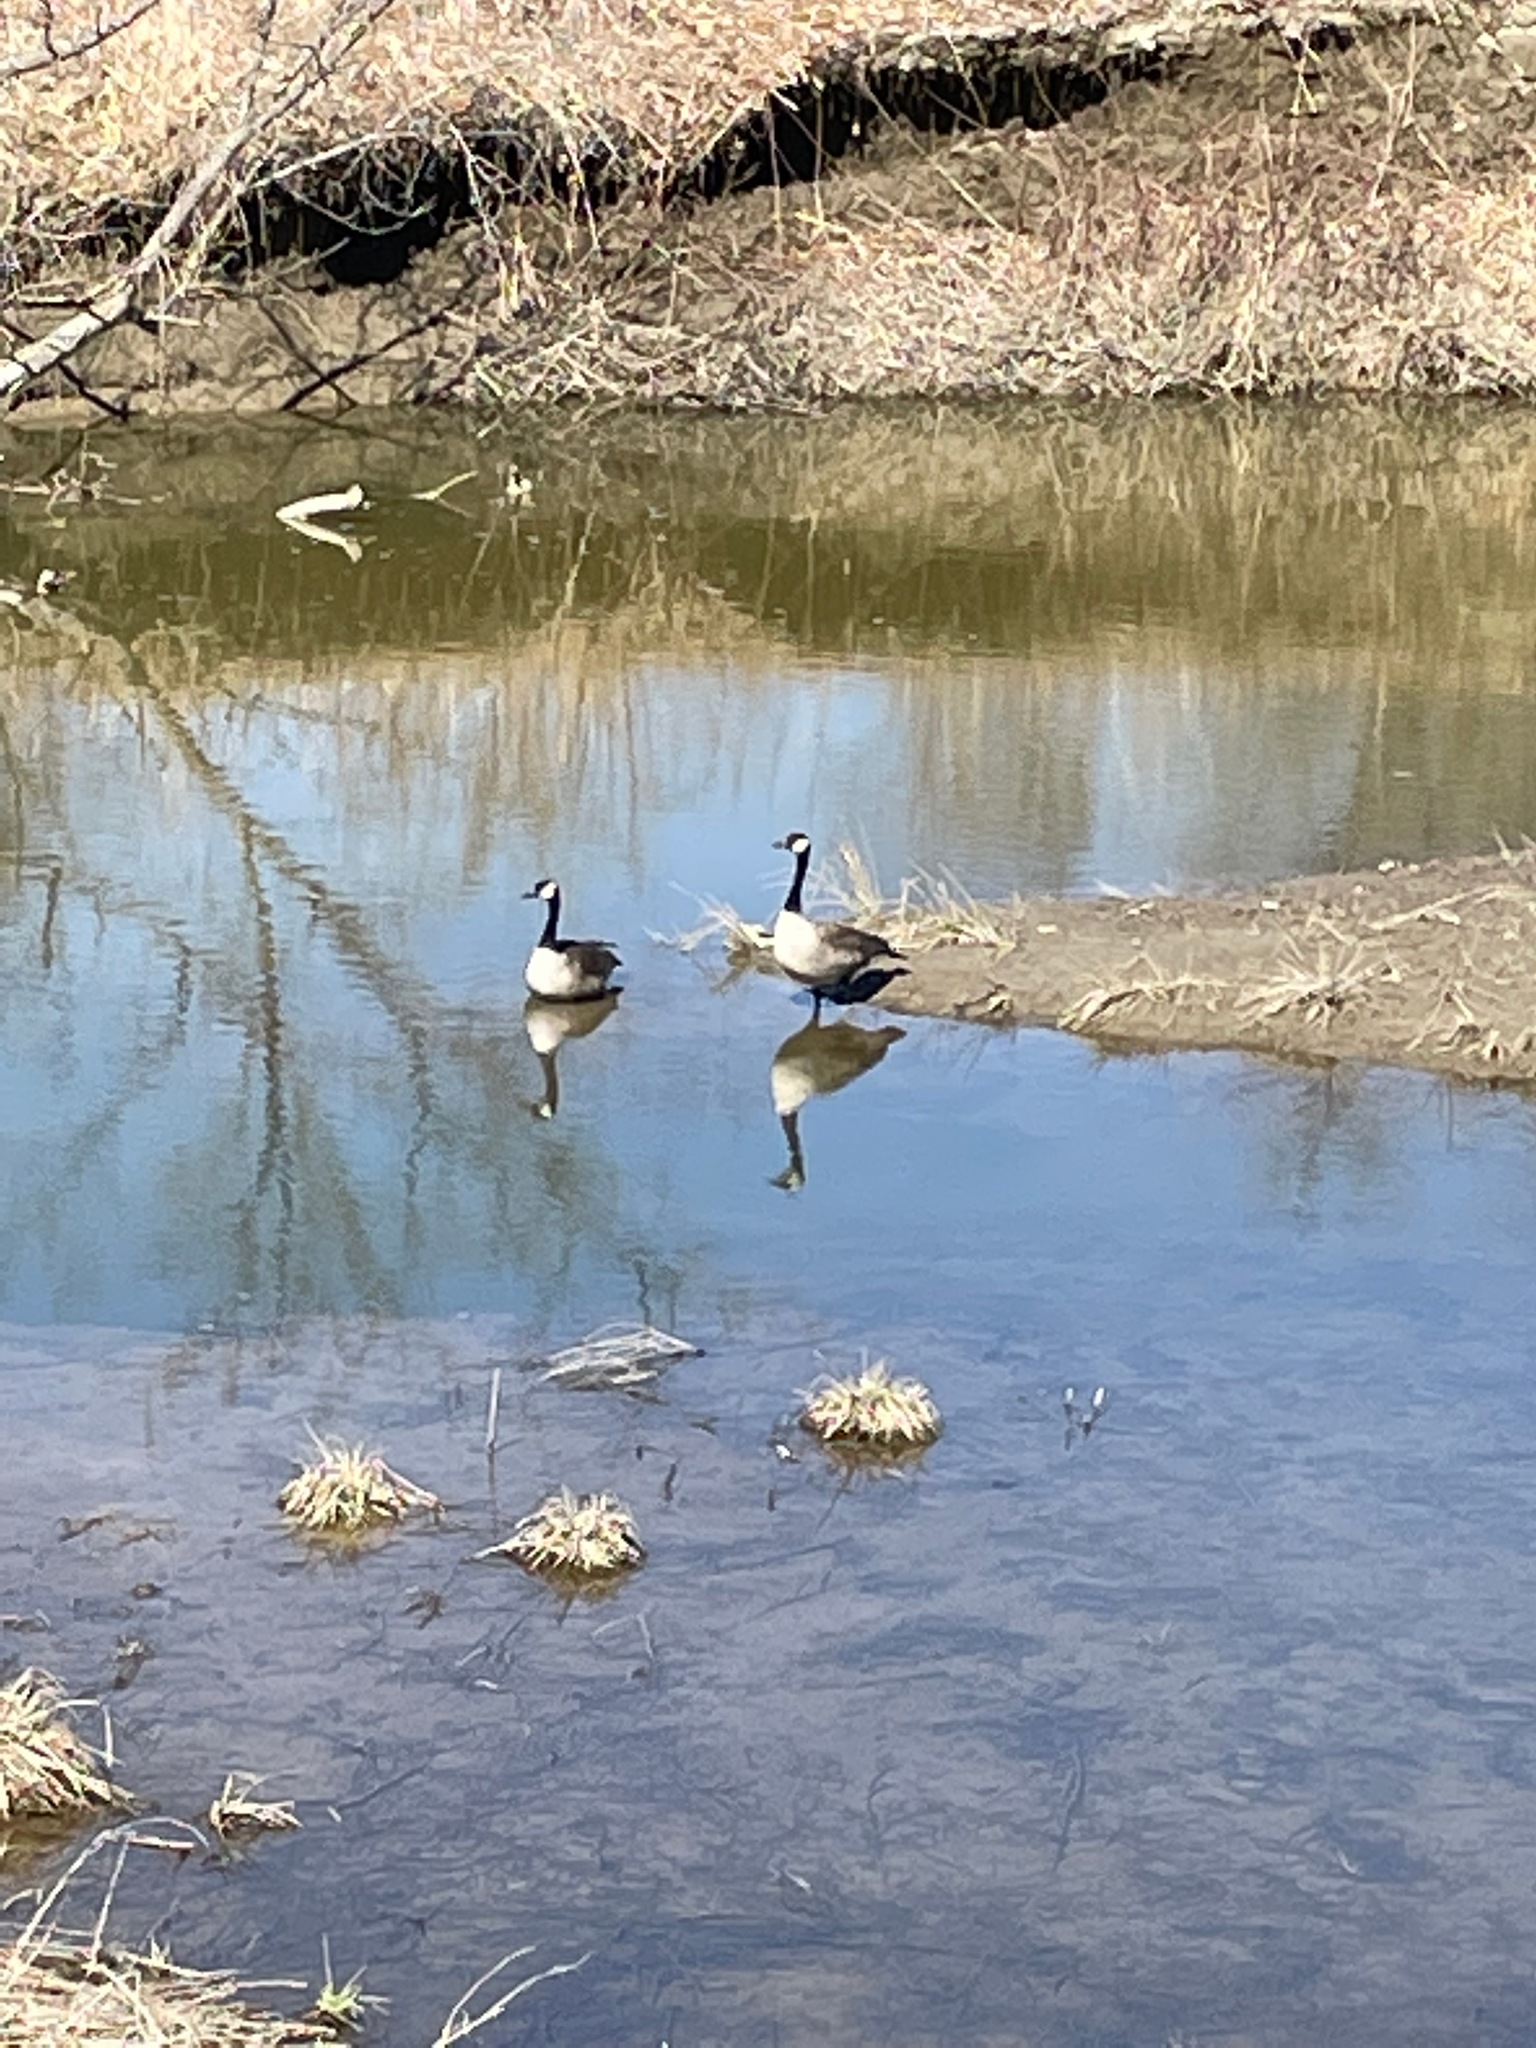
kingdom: Animalia
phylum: Chordata
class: Aves
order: Anseriformes
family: Anatidae
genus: Branta
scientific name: Branta canadensis
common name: Canada goose
